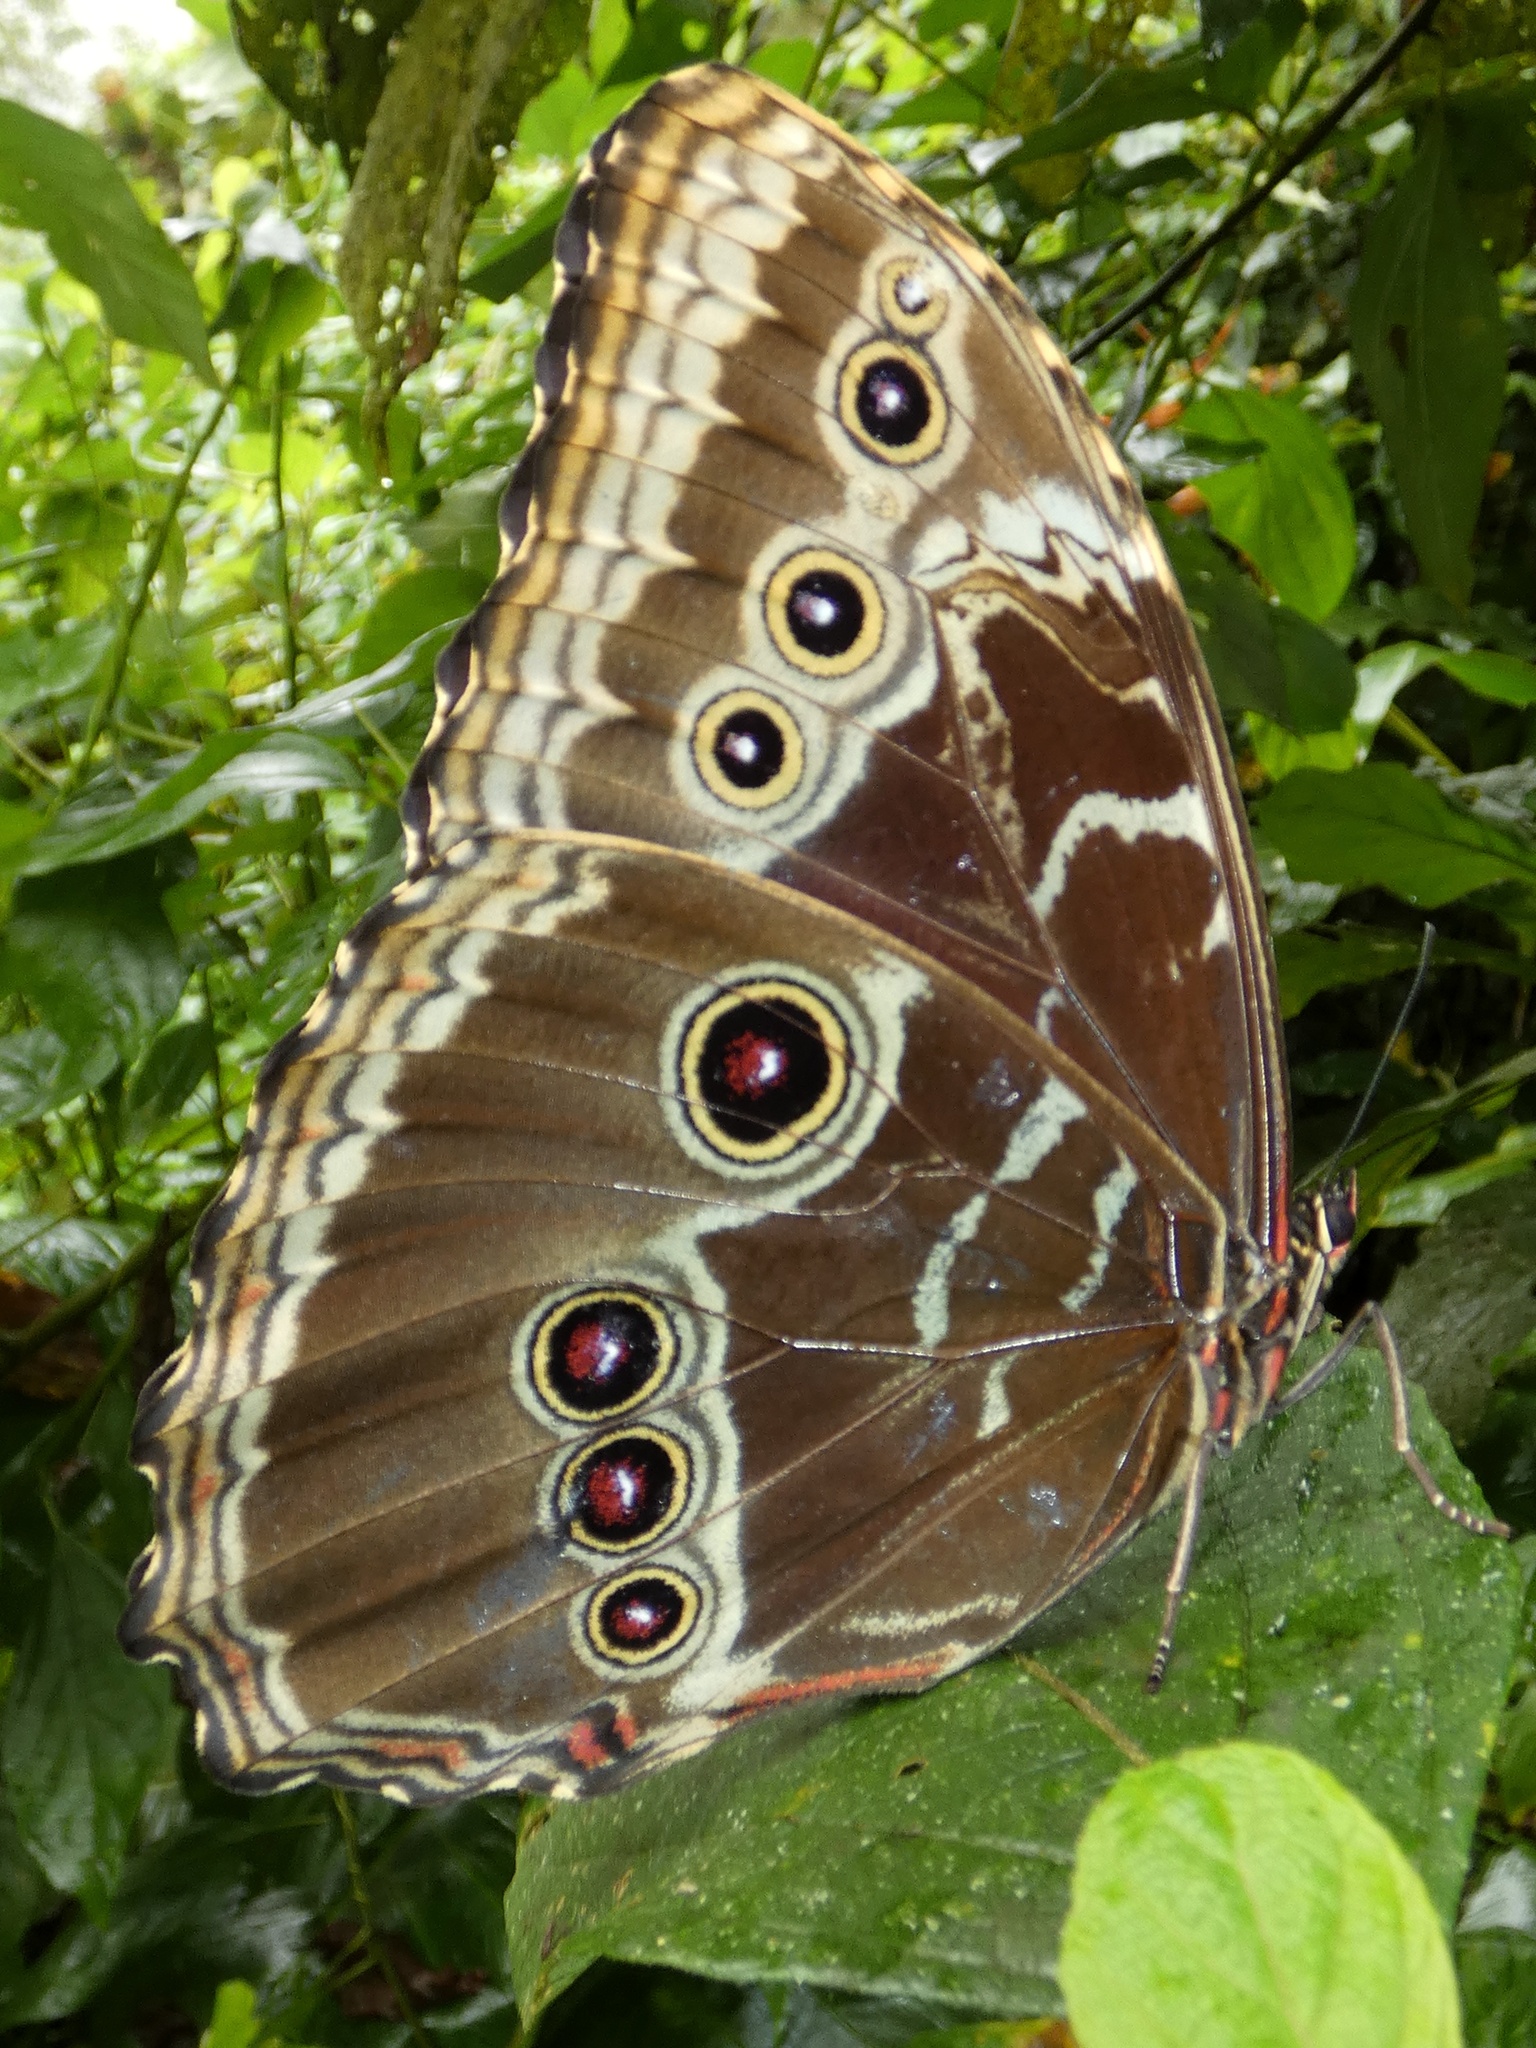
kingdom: Animalia
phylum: Arthropoda
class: Insecta
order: Lepidoptera
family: Nymphalidae
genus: Morpho
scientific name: Morpho helenor
